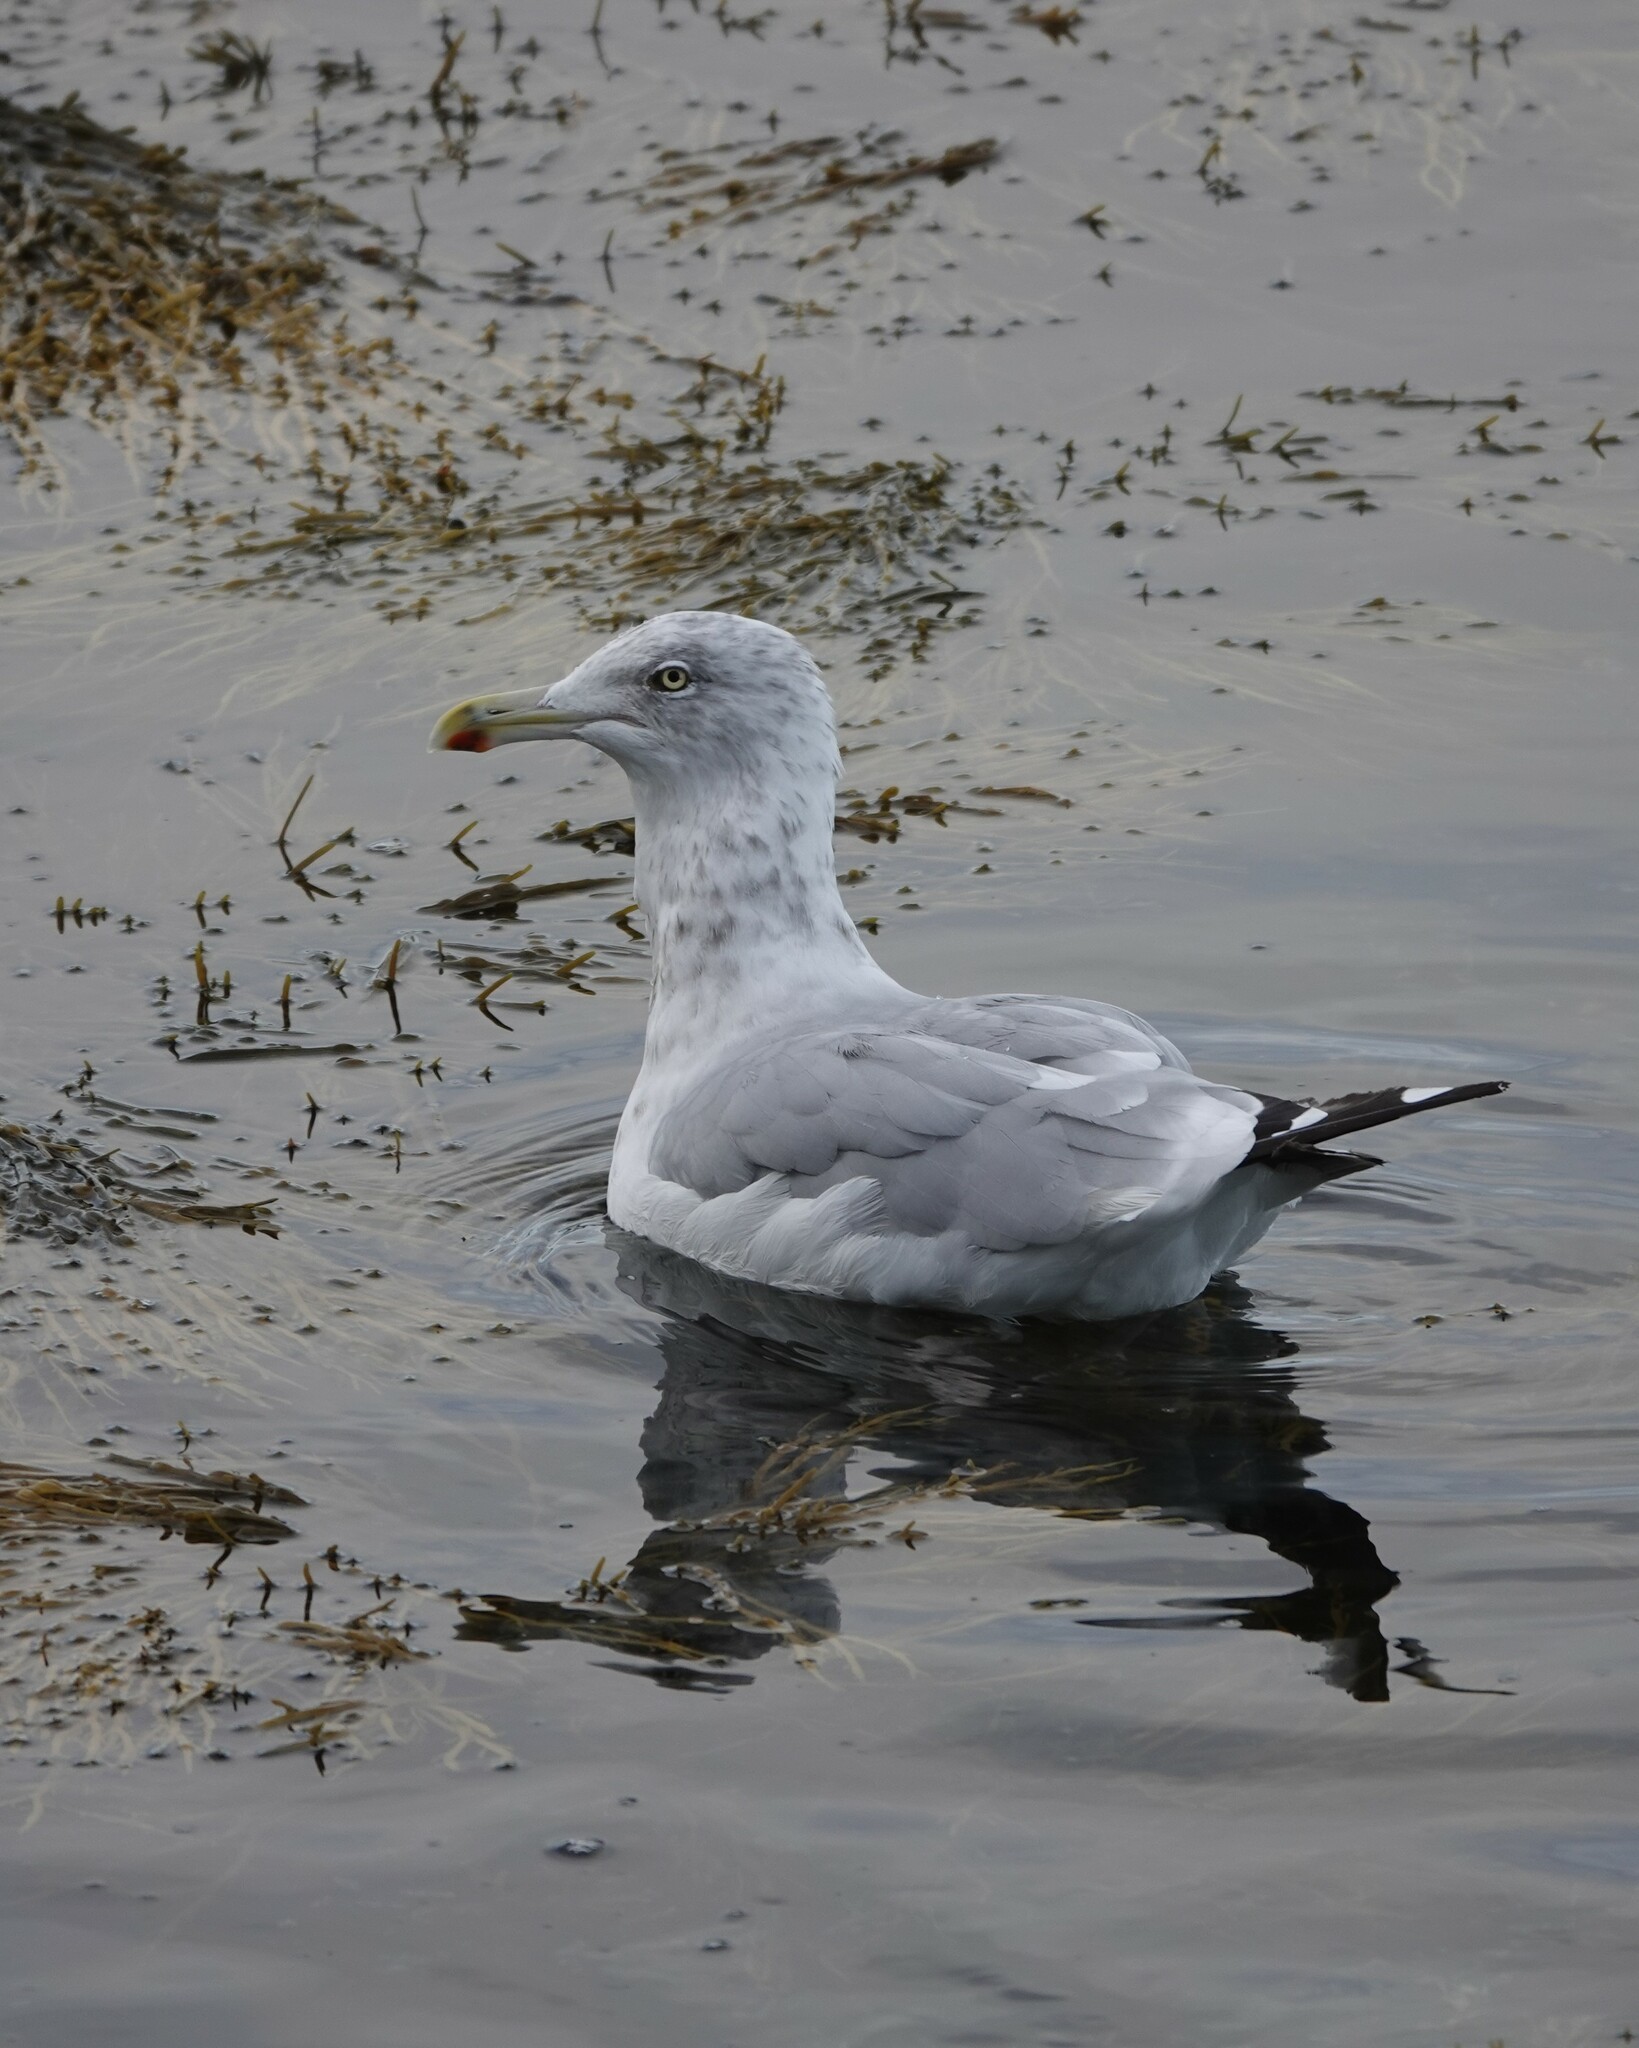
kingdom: Animalia
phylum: Chordata
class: Aves
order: Charadriiformes
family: Laridae
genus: Larus
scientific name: Larus argentatus
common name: Herring gull
